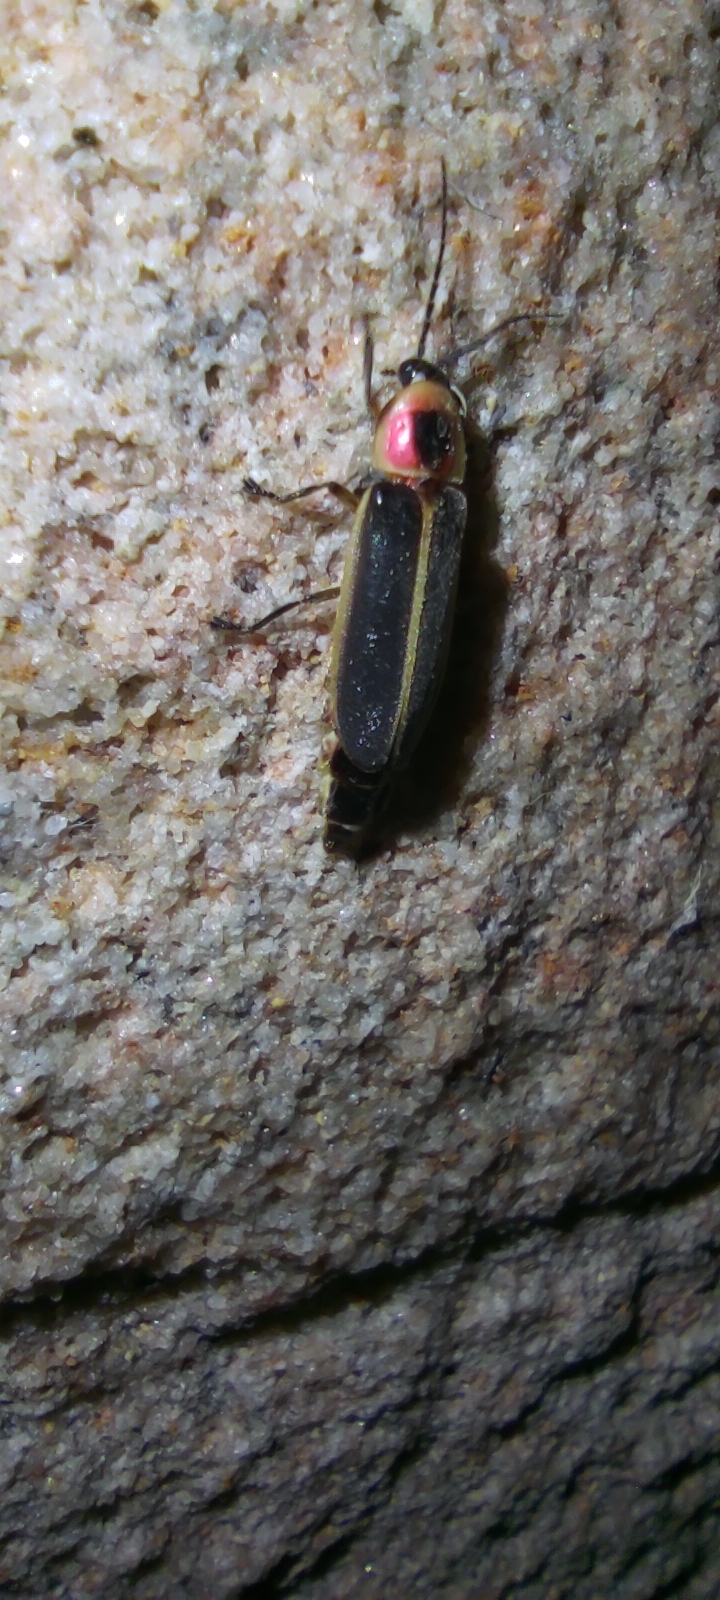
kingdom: Animalia
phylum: Arthropoda
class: Insecta
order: Coleoptera
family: Lampyridae
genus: Photinus
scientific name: Photinus pyralis
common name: Big dipper firefly
